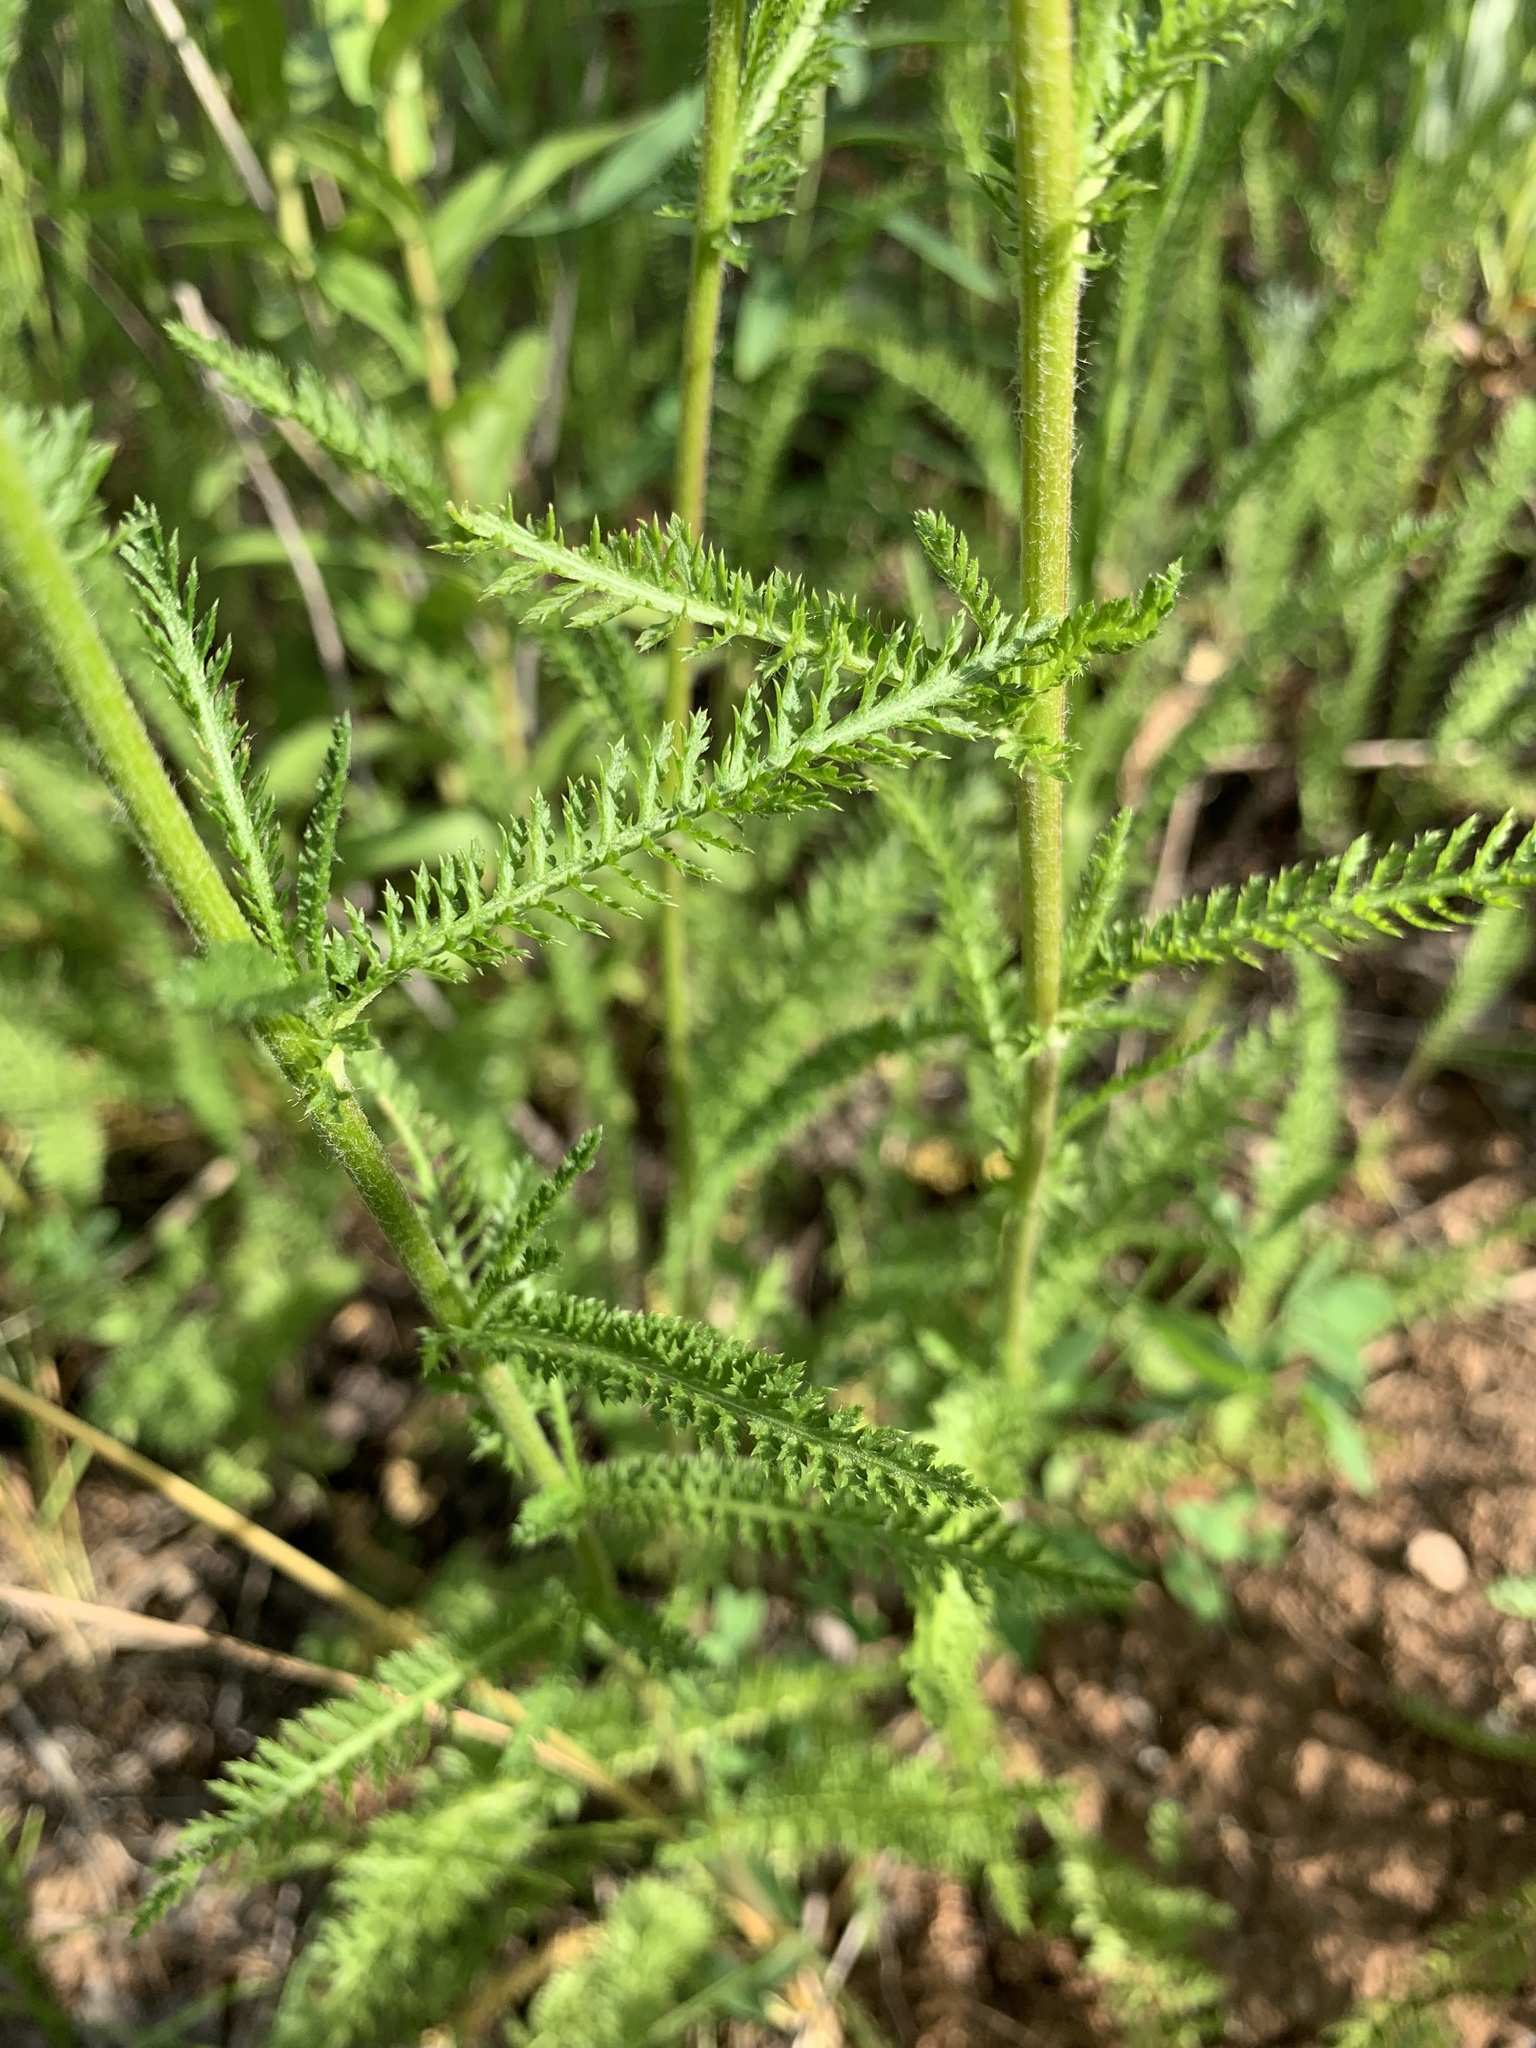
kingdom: Plantae
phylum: Tracheophyta
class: Magnoliopsida
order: Asterales
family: Asteraceae
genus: Achillea
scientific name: Achillea millefolium
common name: Yarrow
